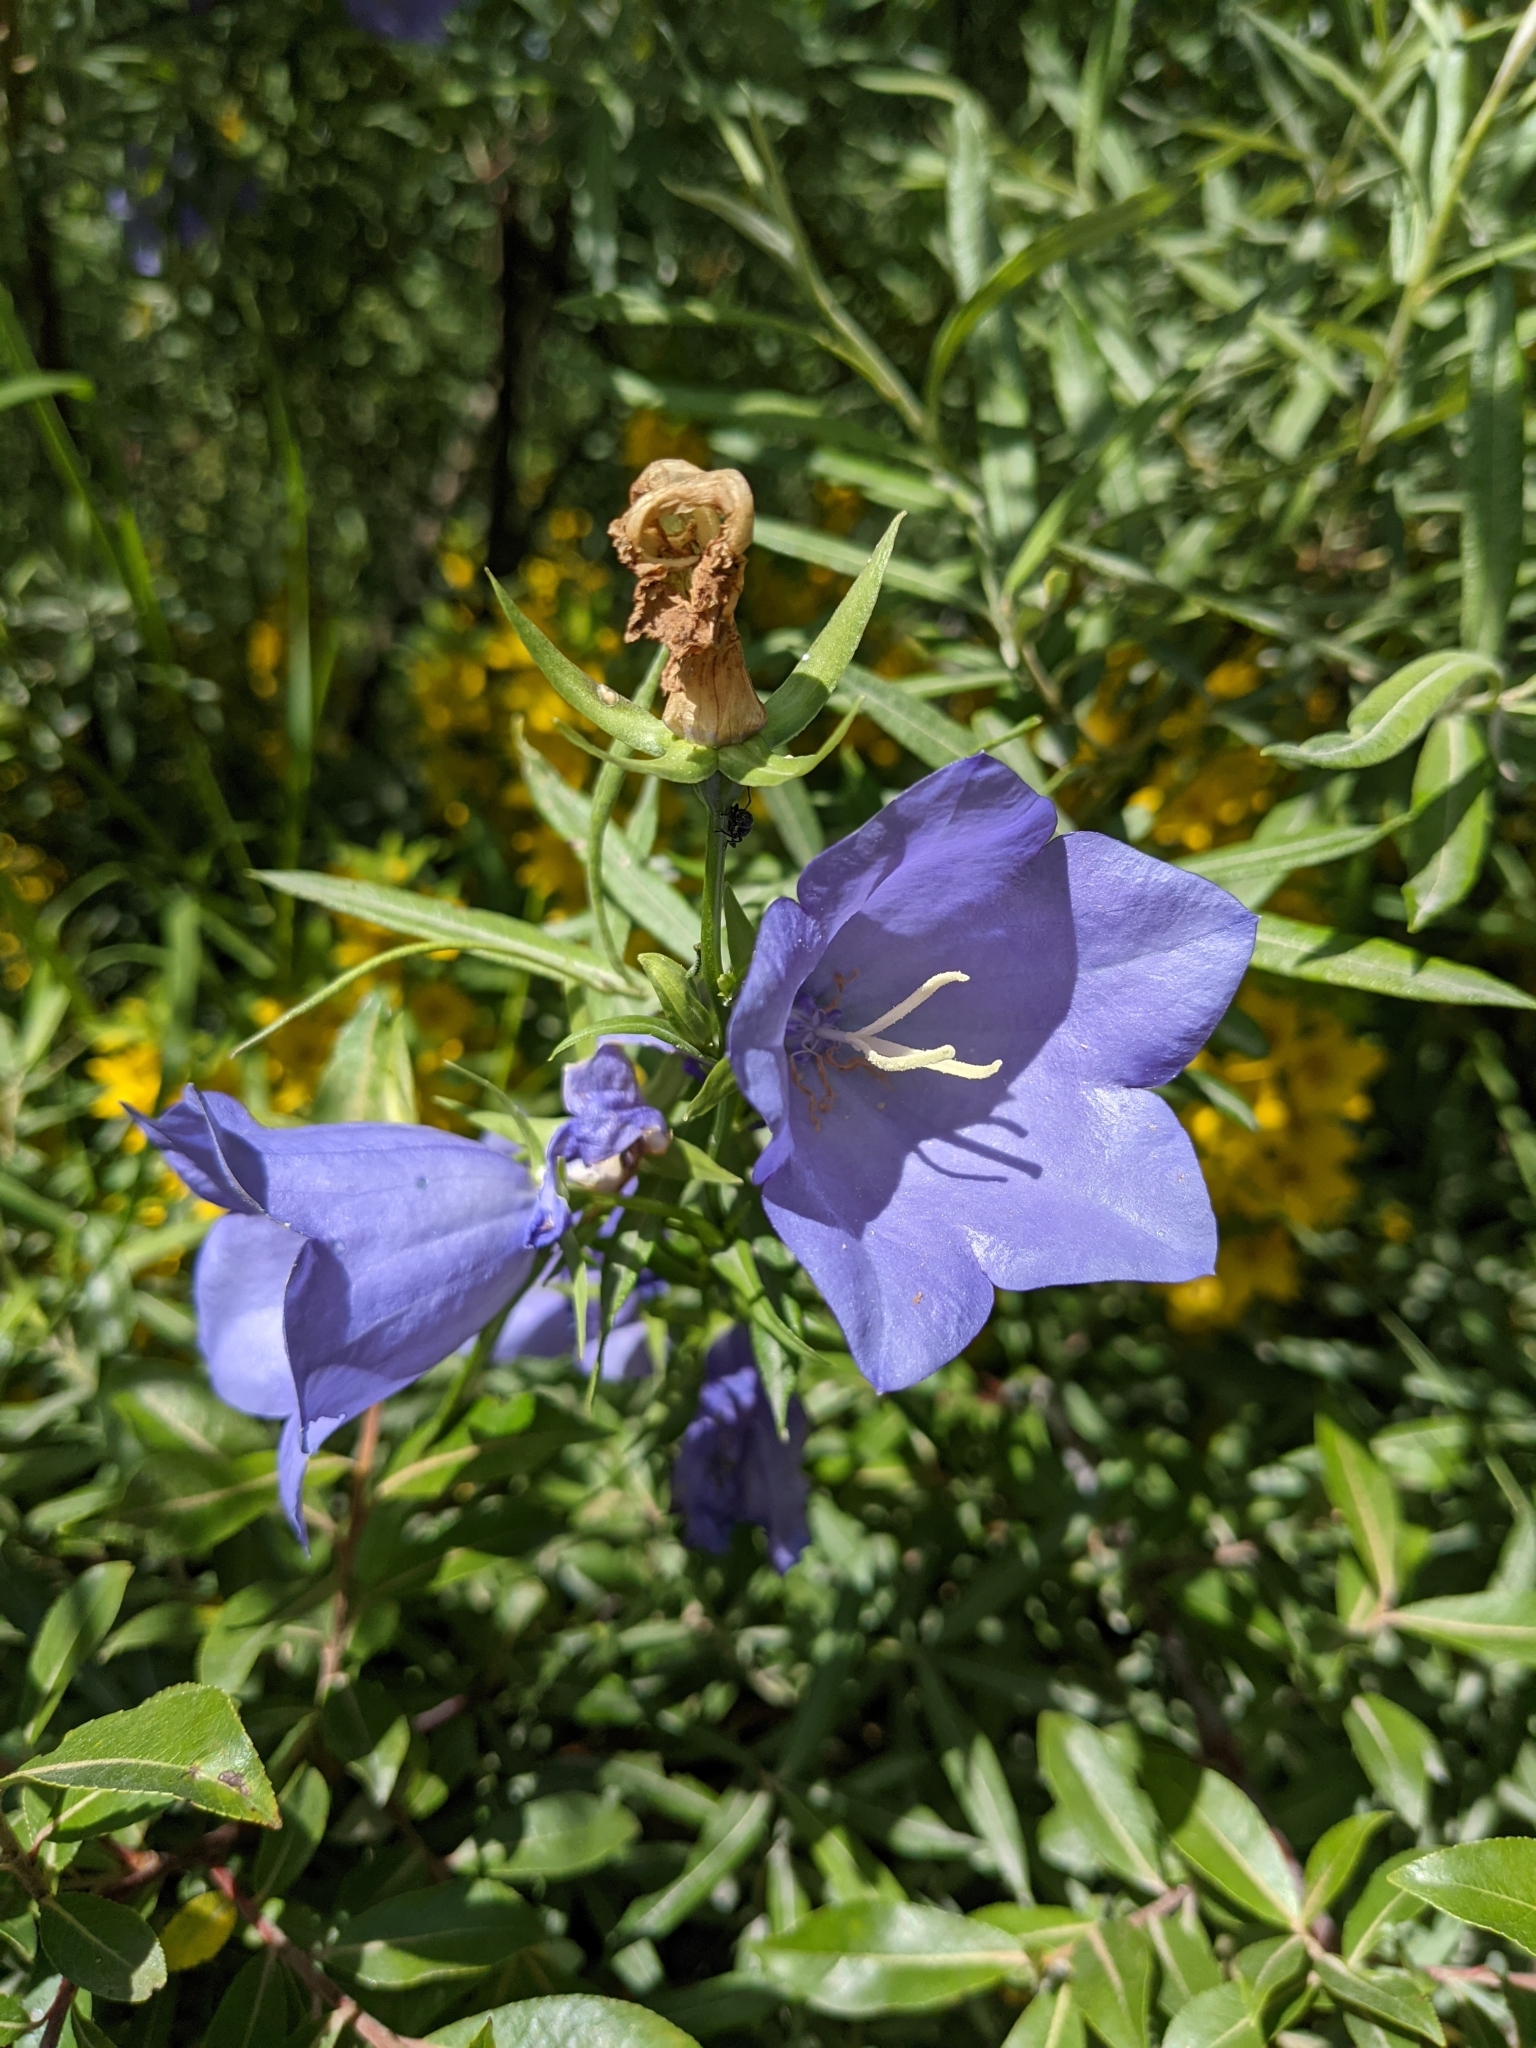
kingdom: Plantae
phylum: Tracheophyta
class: Magnoliopsida
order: Asterales
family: Campanulaceae
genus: Campanula
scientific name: Campanula persicifolia
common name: Peach-leaved bellflower
